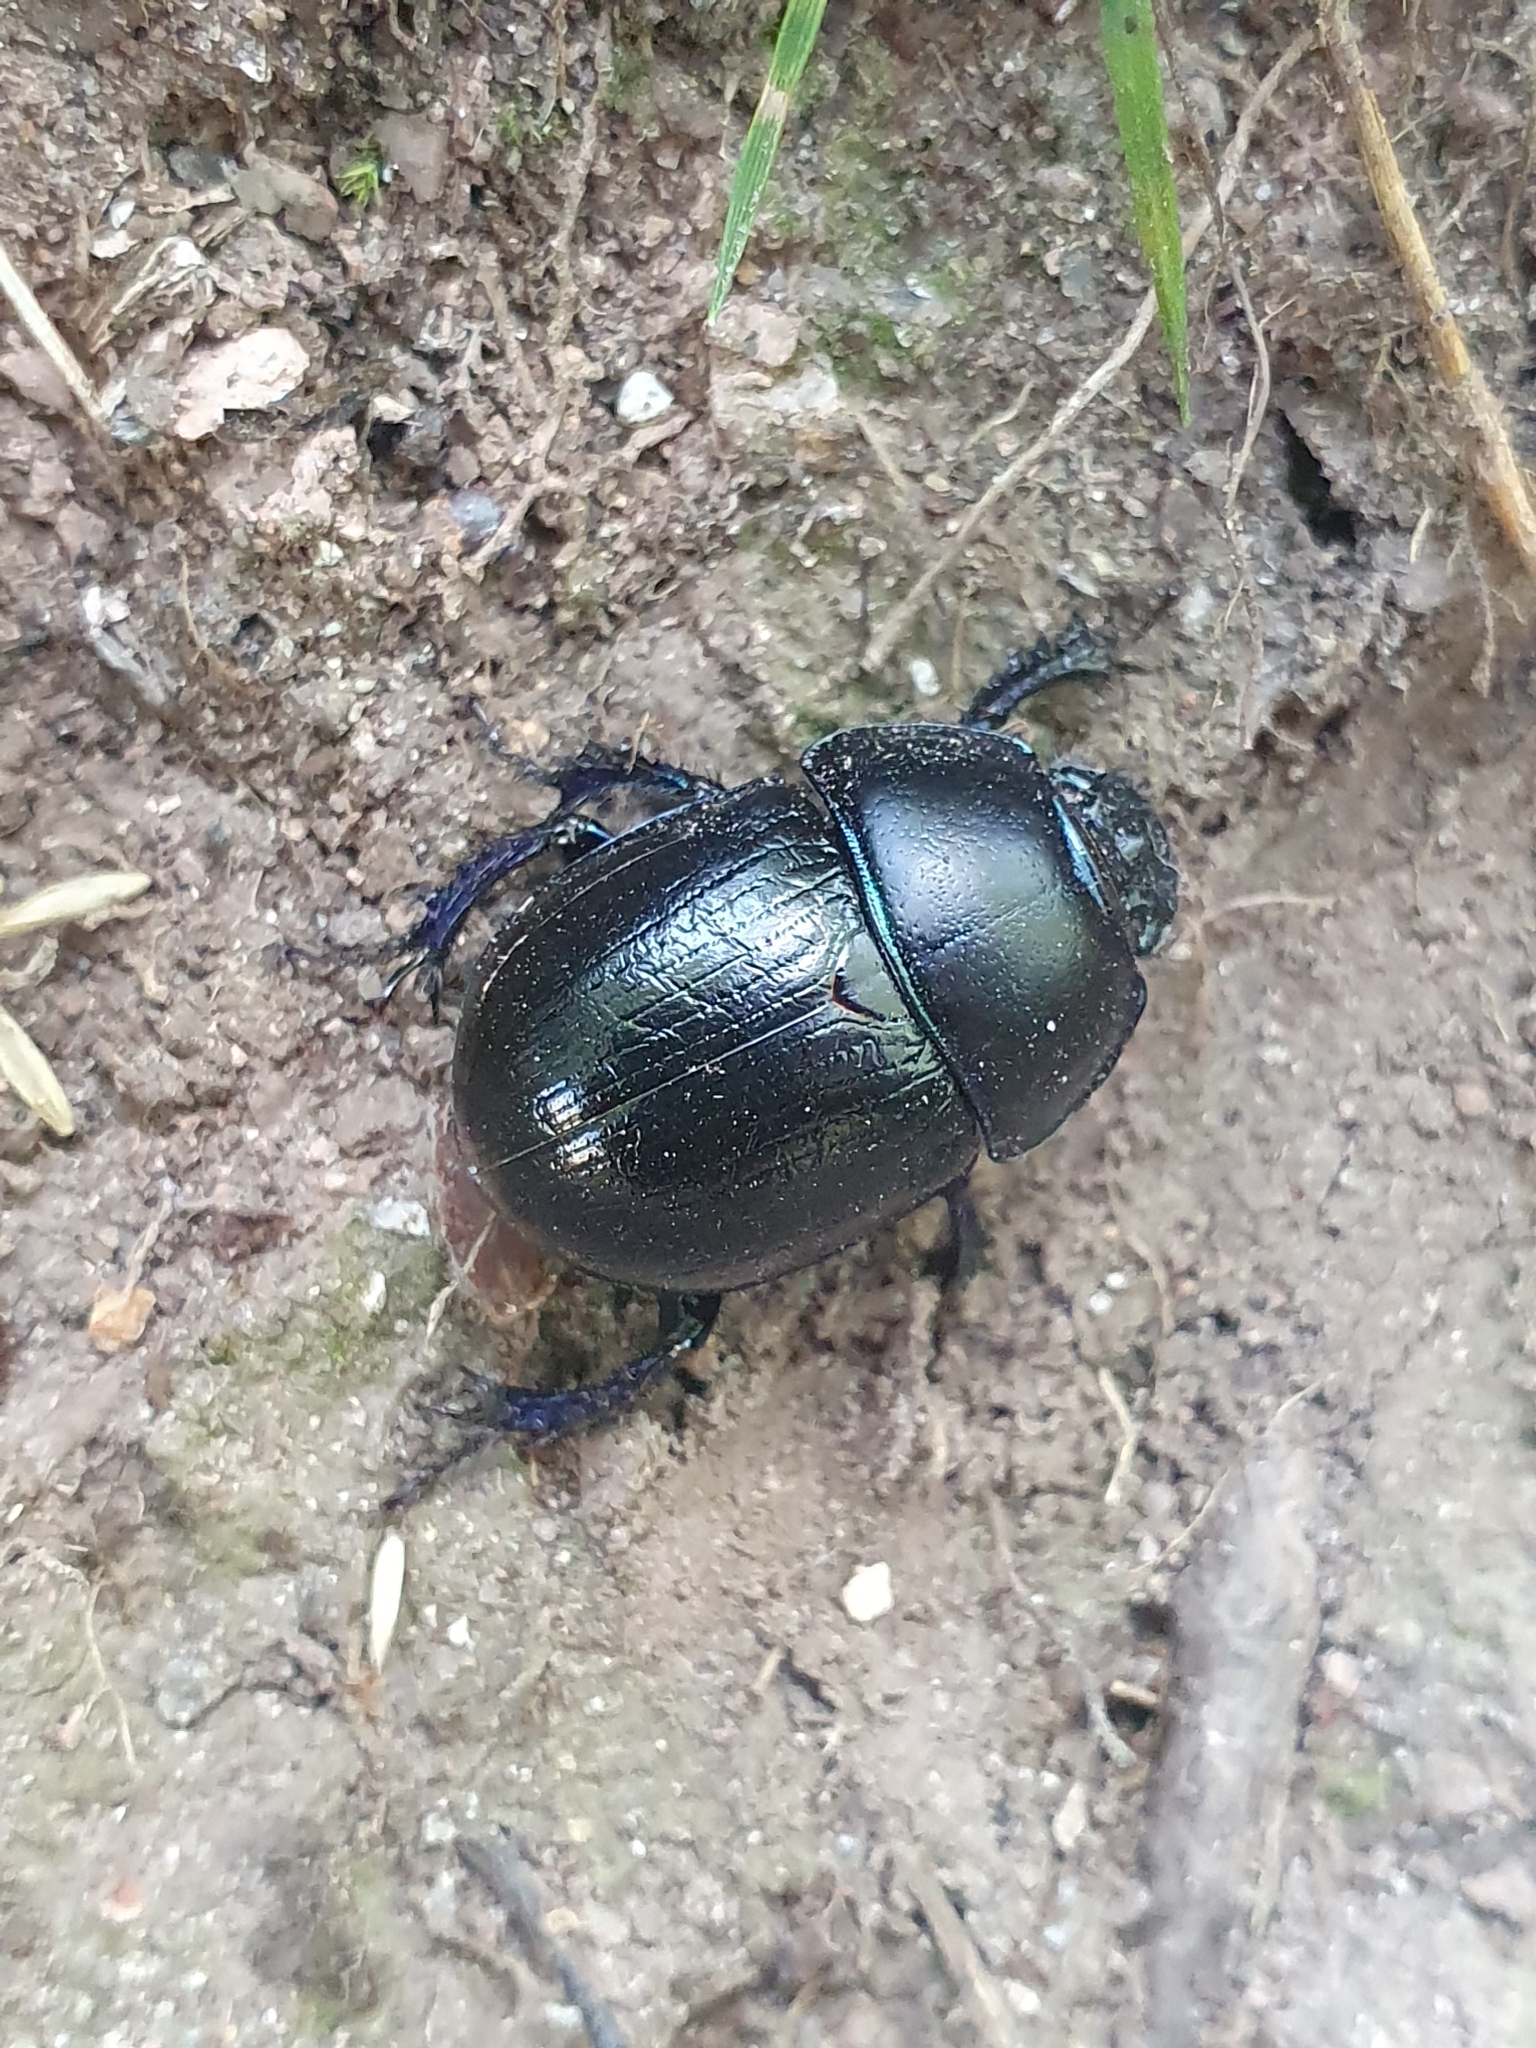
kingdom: Animalia
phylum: Arthropoda
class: Insecta
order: Coleoptera
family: Geotrupidae
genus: Anoplotrupes
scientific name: Anoplotrupes stercorosus
